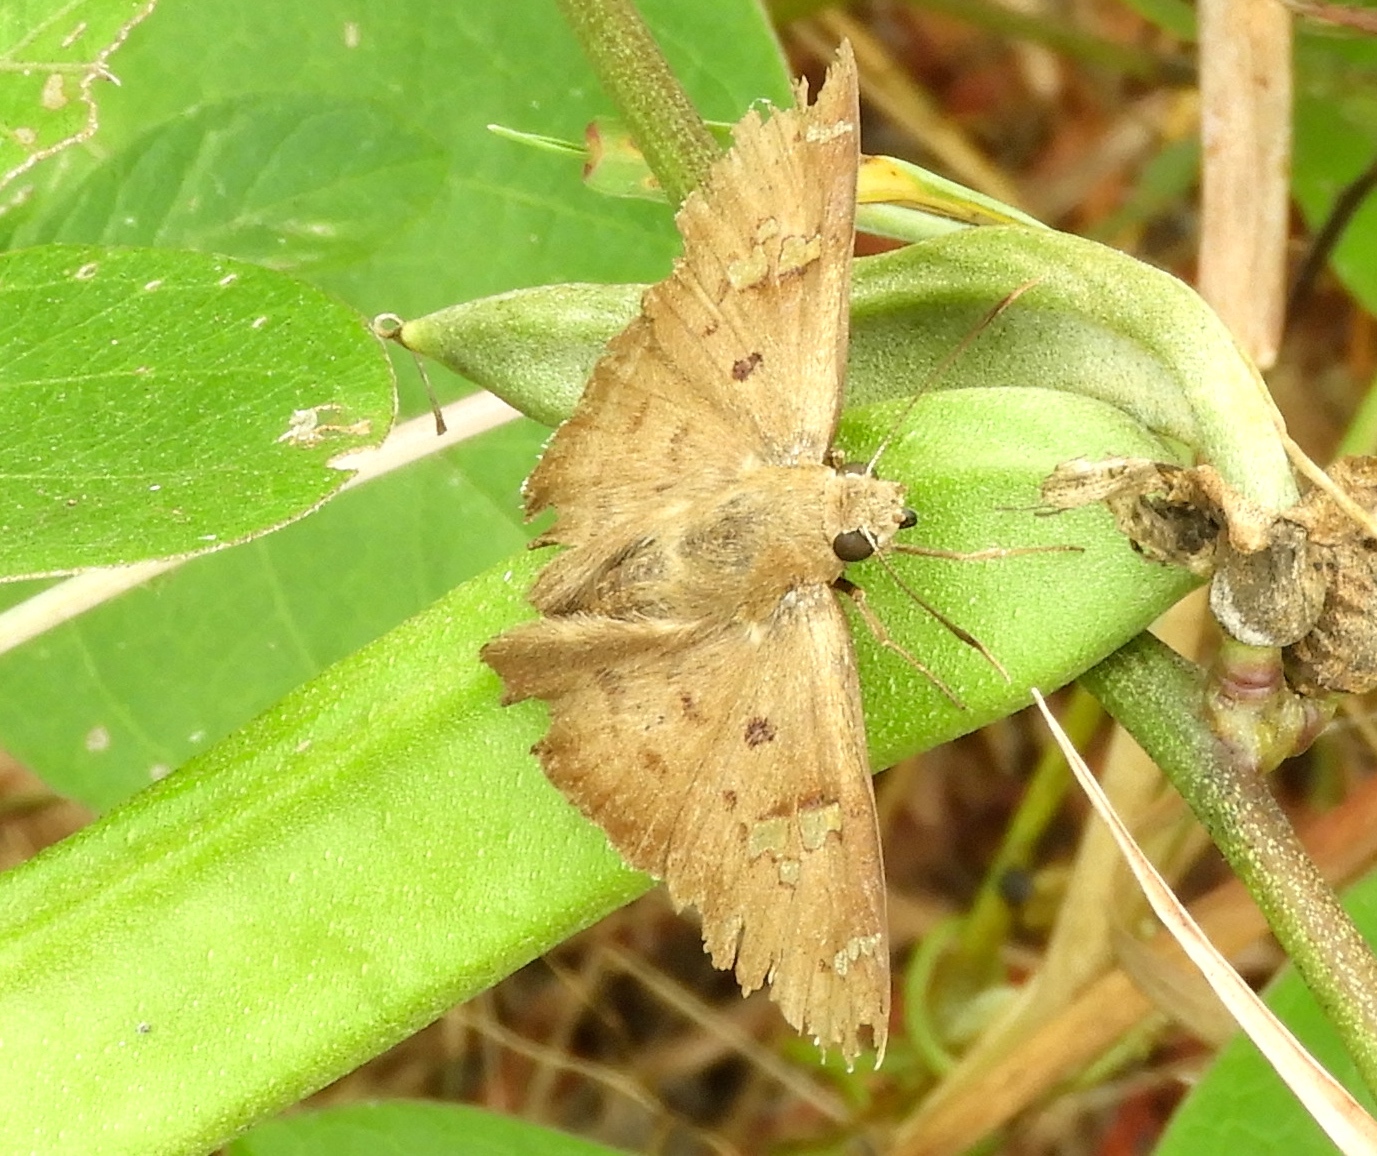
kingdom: Animalia
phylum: Arthropoda
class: Insecta
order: Lepidoptera
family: Hesperiidae
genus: Ectomis
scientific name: Ectomis
